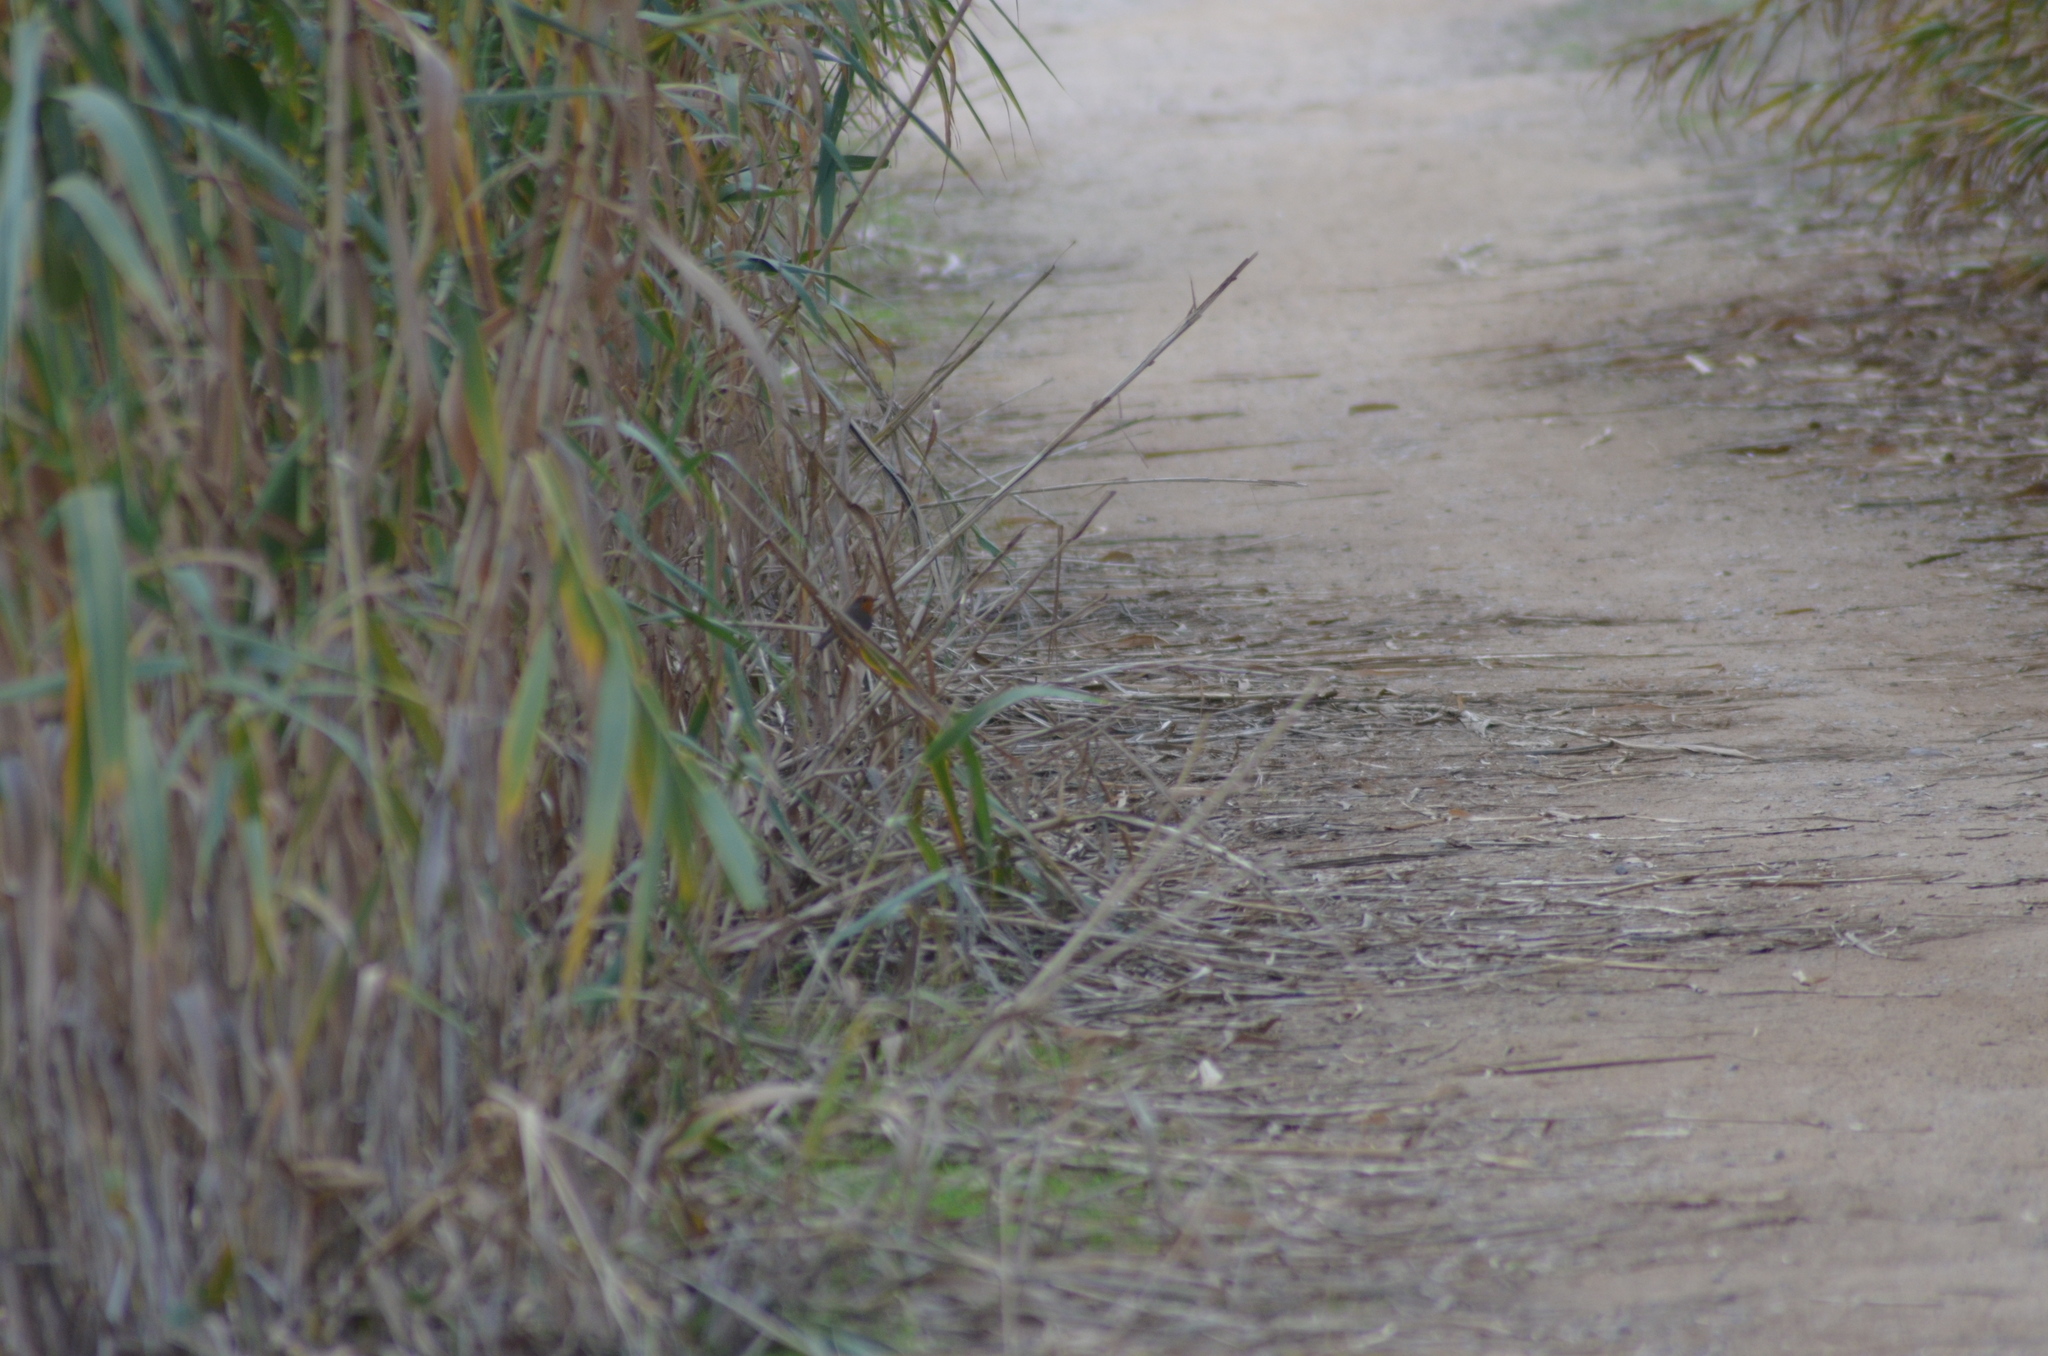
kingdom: Animalia
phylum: Chordata
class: Aves
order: Passeriformes
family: Muscicapidae
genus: Erithacus
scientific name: Erithacus rubecula
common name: European robin
